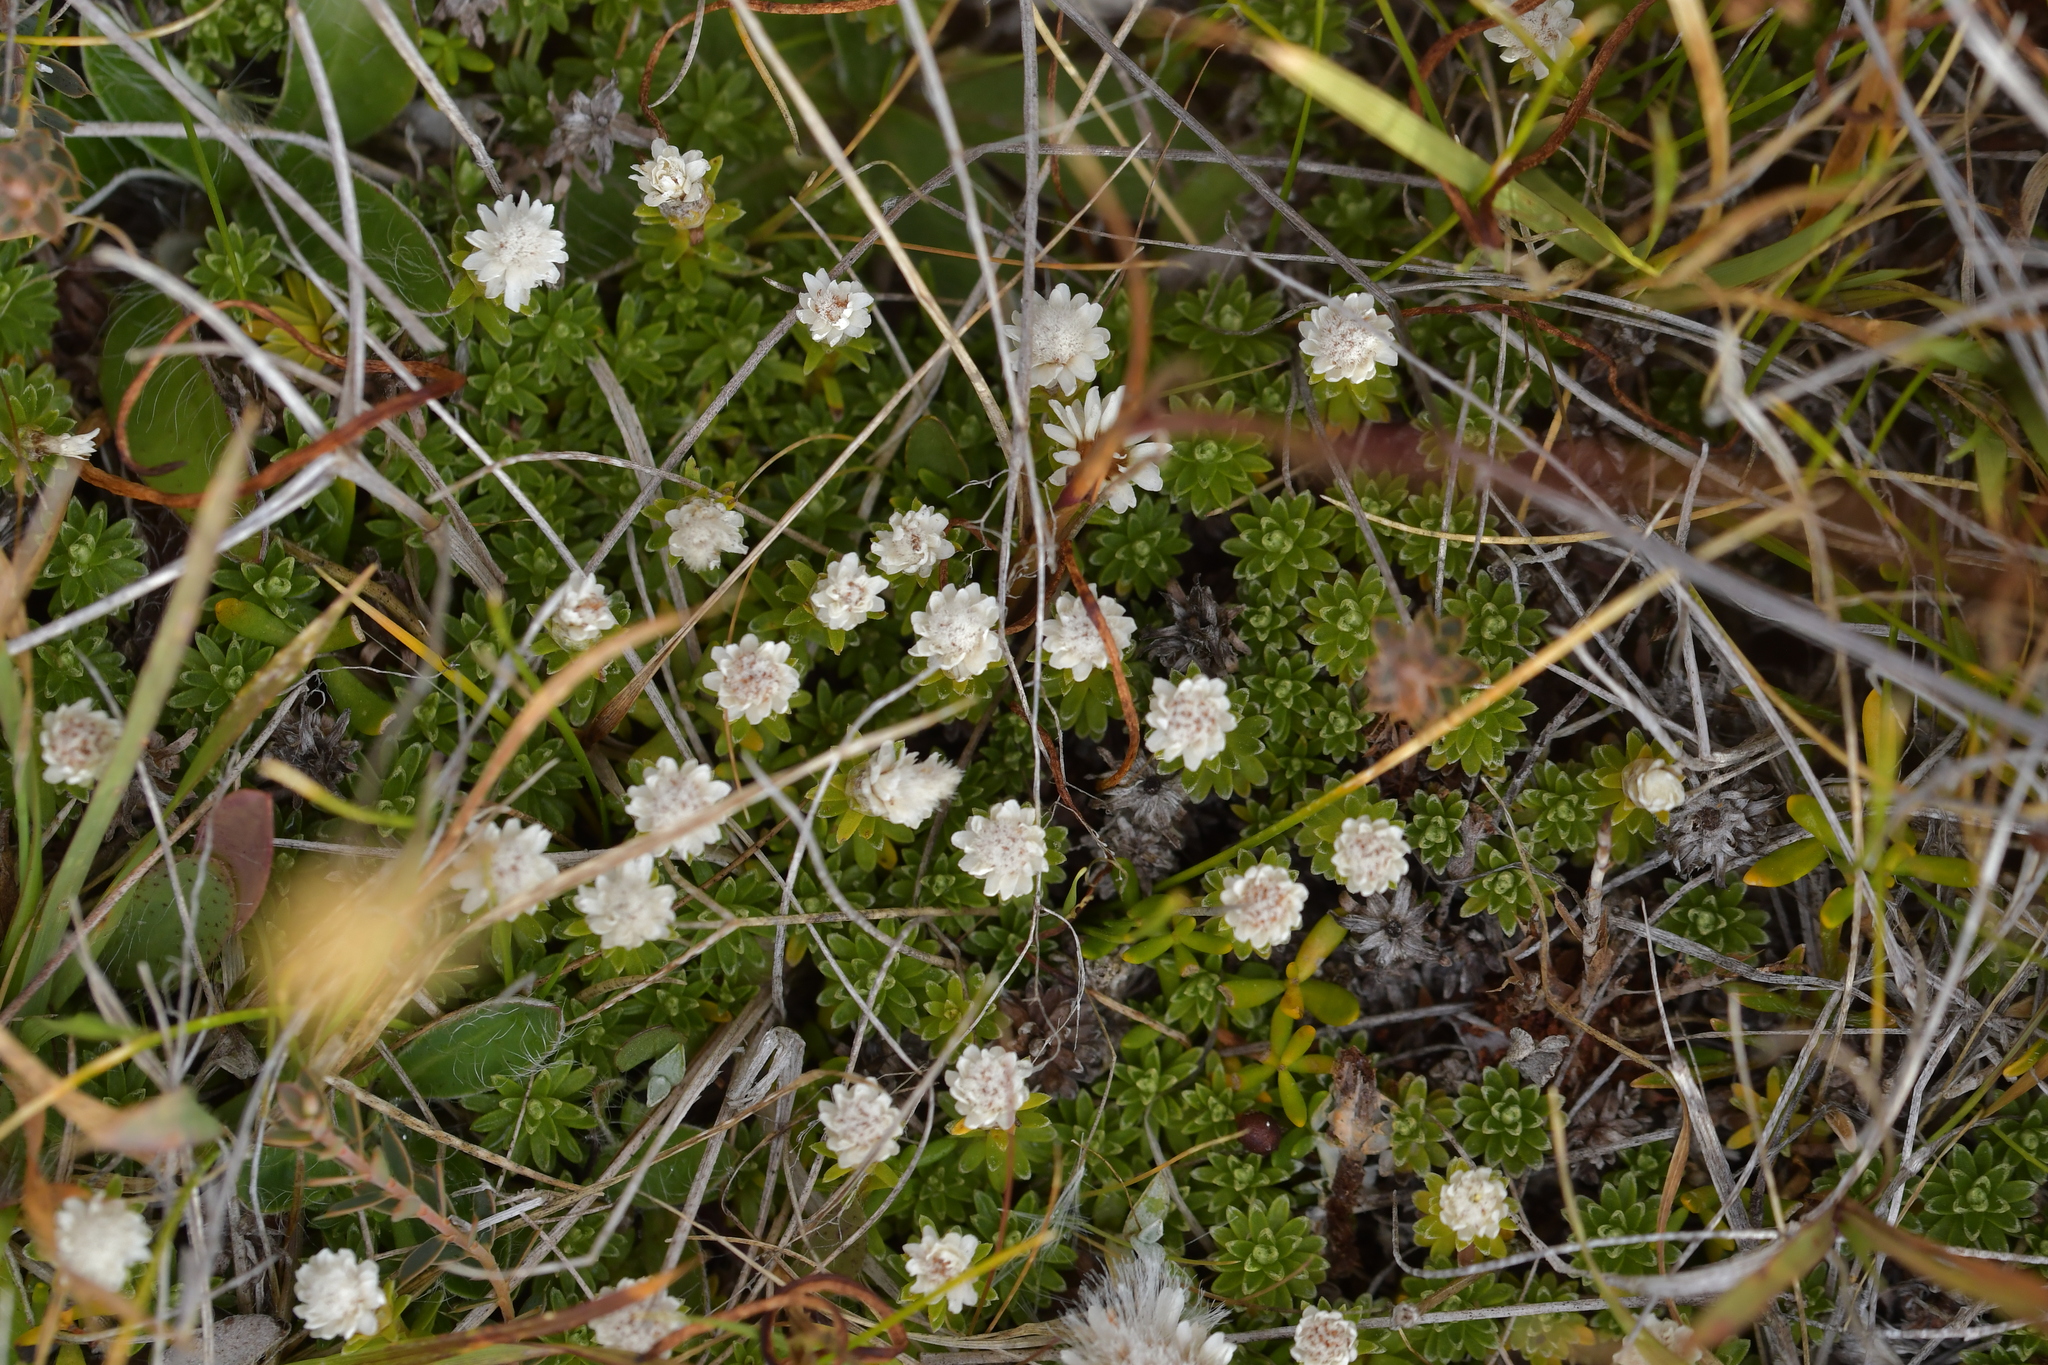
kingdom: Plantae
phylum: Tracheophyta
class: Magnoliopsida
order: Asterales
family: Asteraceae
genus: Raoulia
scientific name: Raoulia subsericea
